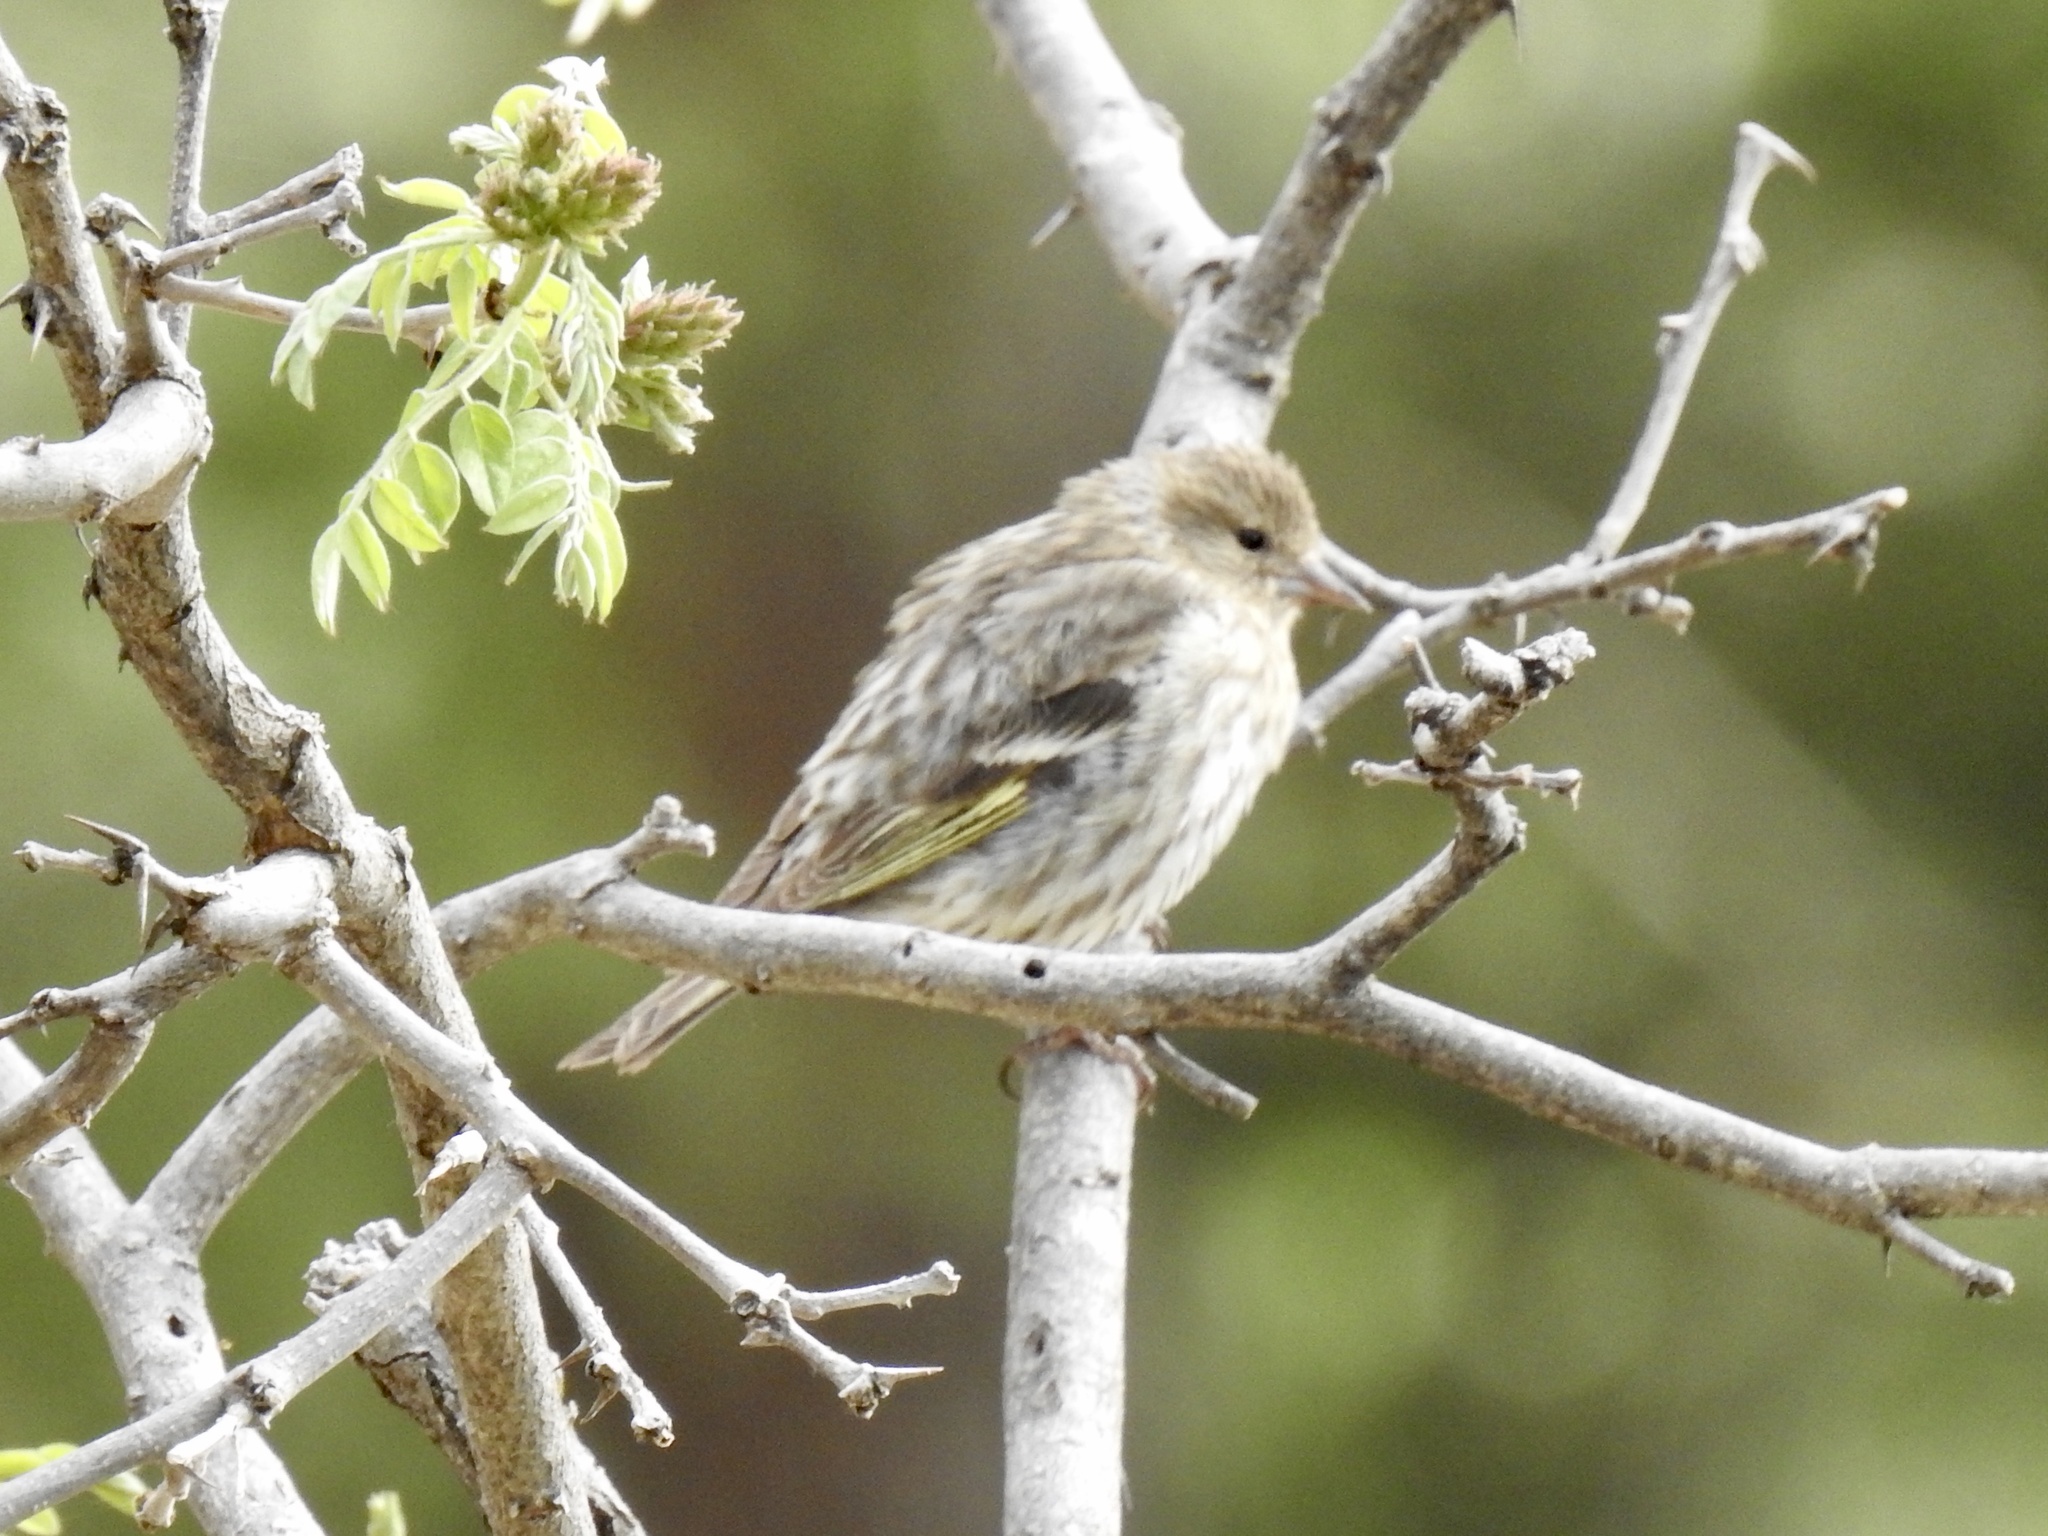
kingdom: Animalia
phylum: Chordata
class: Aves
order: Passeriformes
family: Fringillidae
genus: Spinus
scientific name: Spinus pinus
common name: Pine siskin
